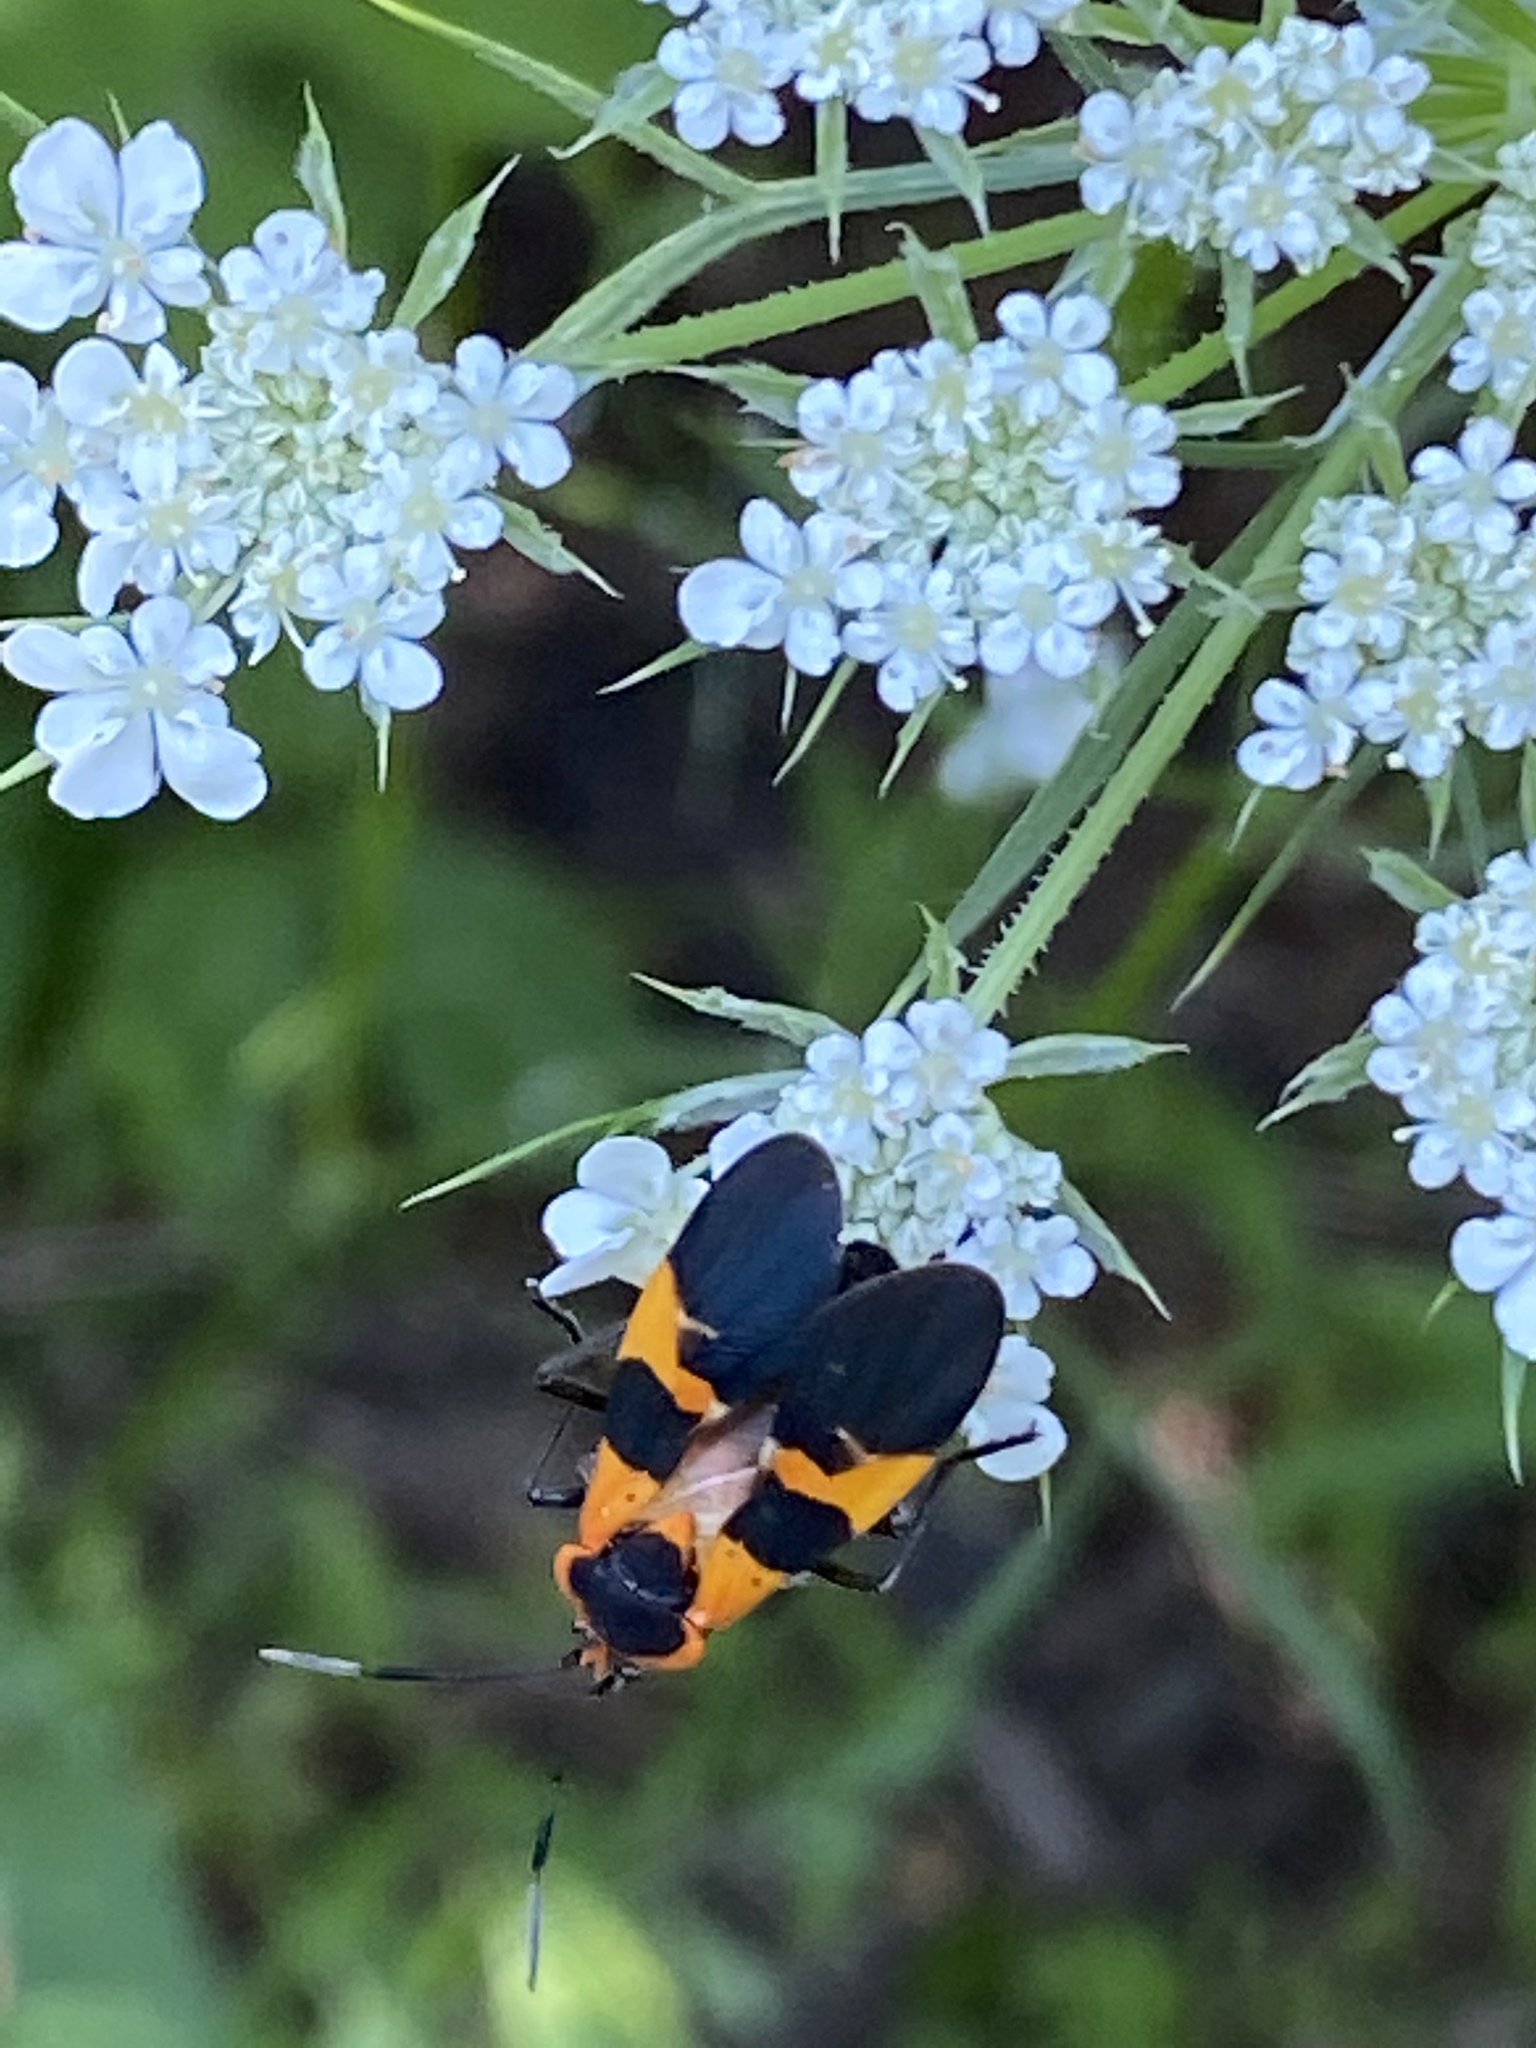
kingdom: Animalia
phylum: Arthropoda
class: Insecta
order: Hemiptera
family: Lygaeidae
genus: Oncopeltus
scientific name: Oncopeltus fasciatus
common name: Large milkweed bug
